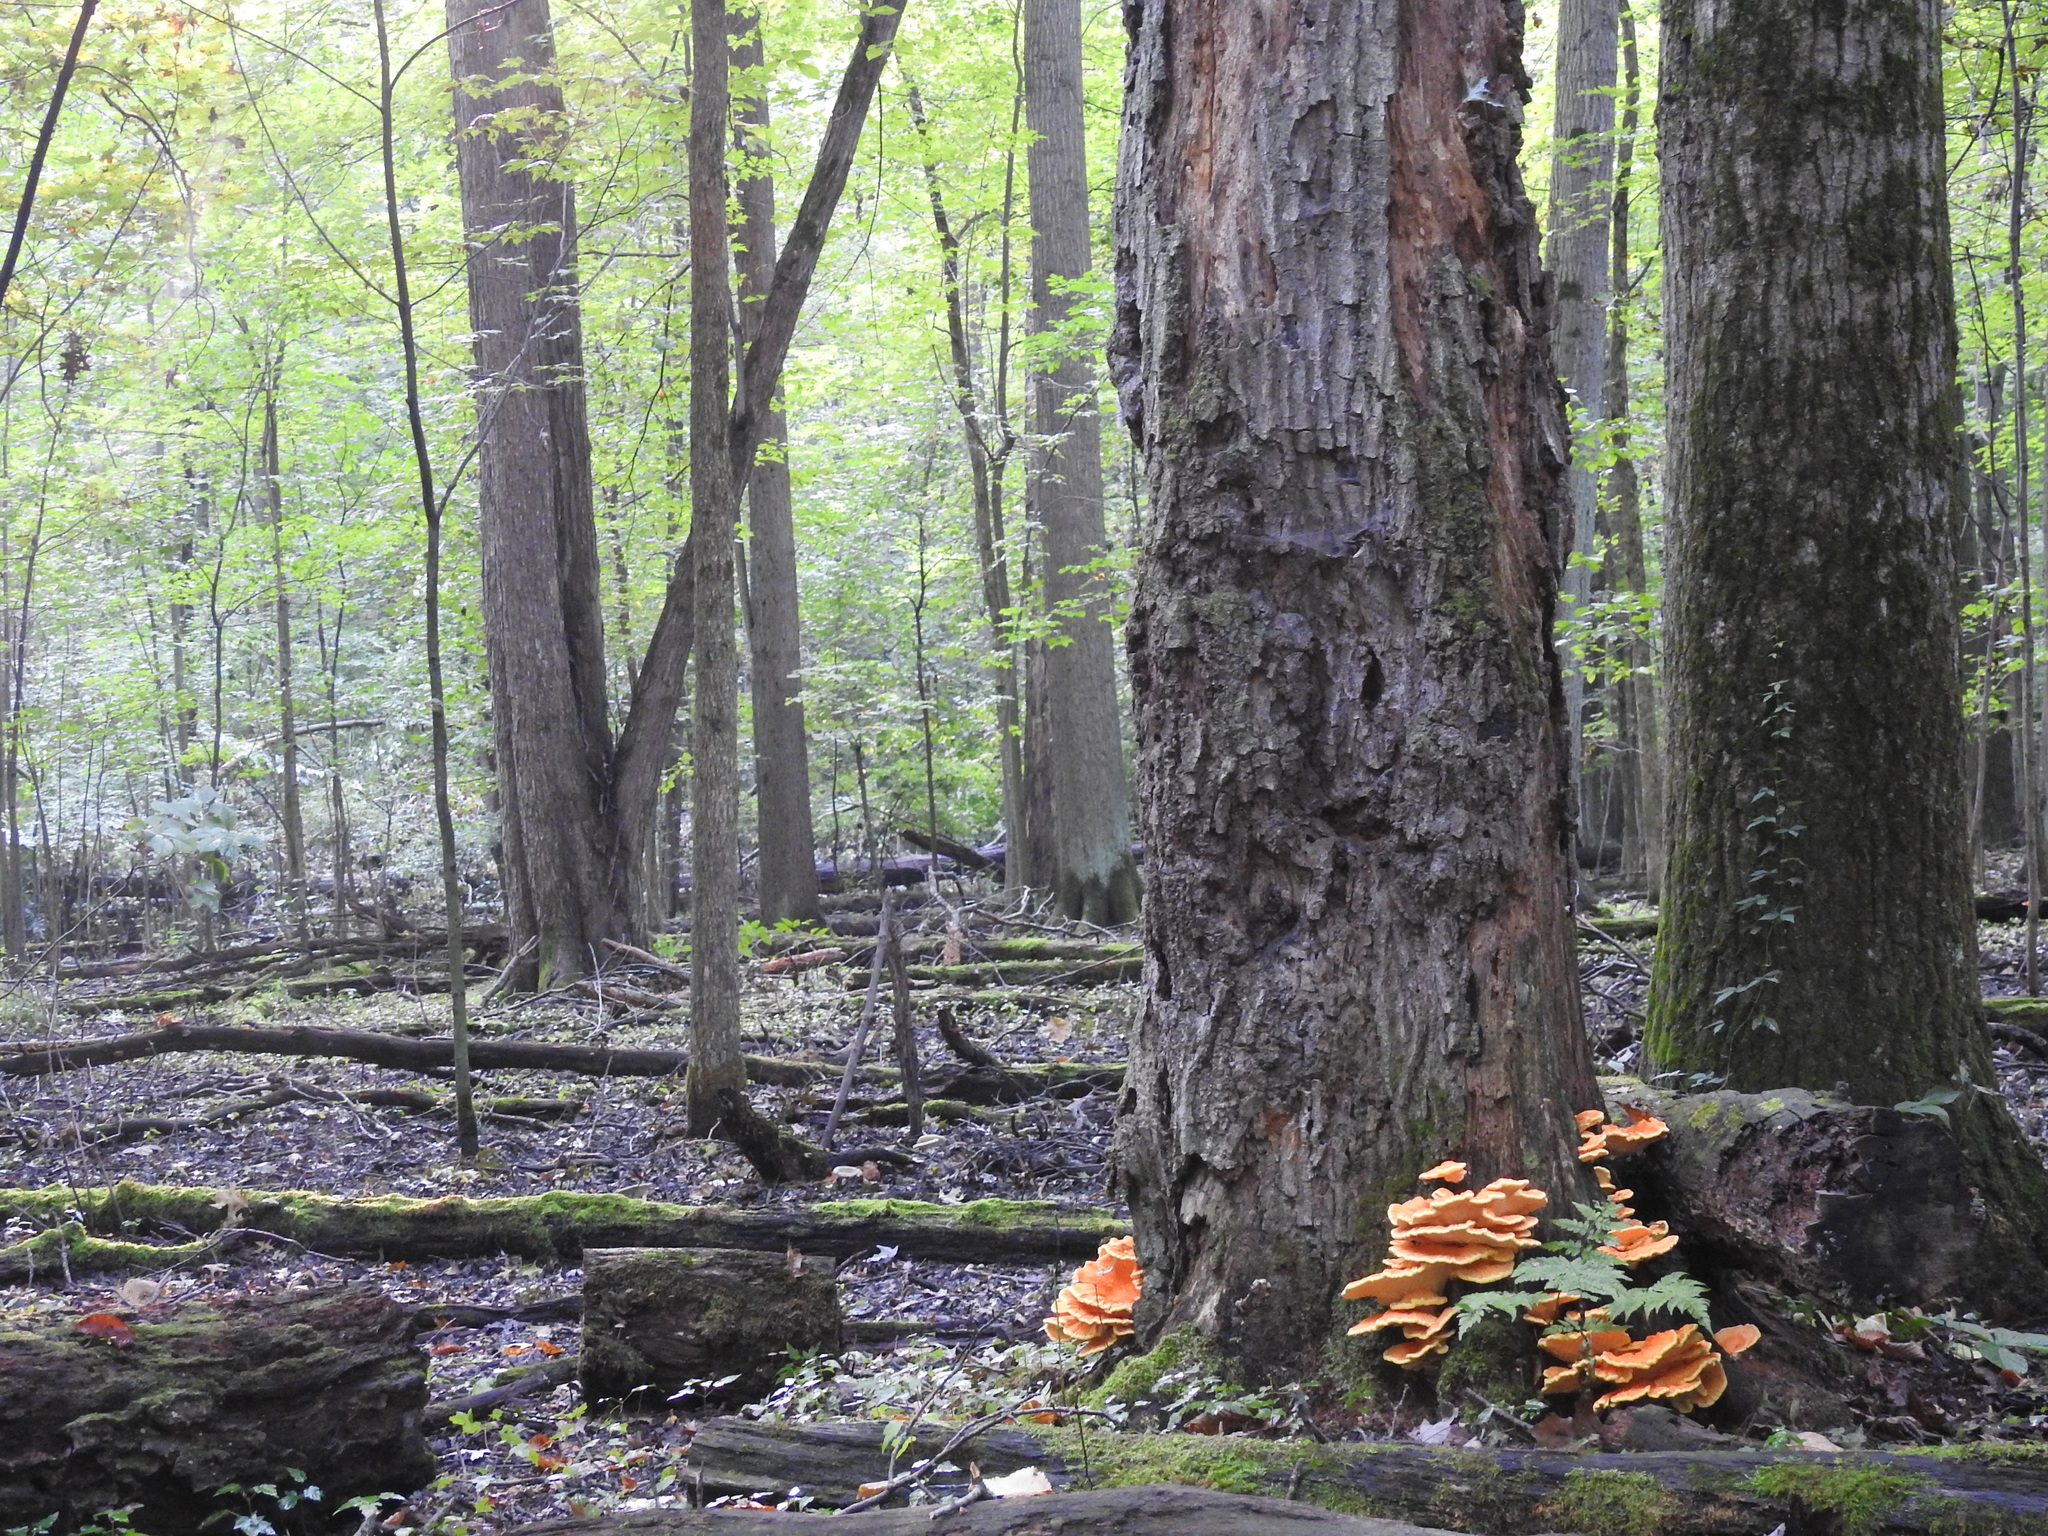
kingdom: Fungi
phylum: Basidiomycota
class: Agaricomycetes
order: Polyporales
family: Laetiporaceae
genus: Laetiporus
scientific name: Laetiporus sulphureus
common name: Chicken of the woods
